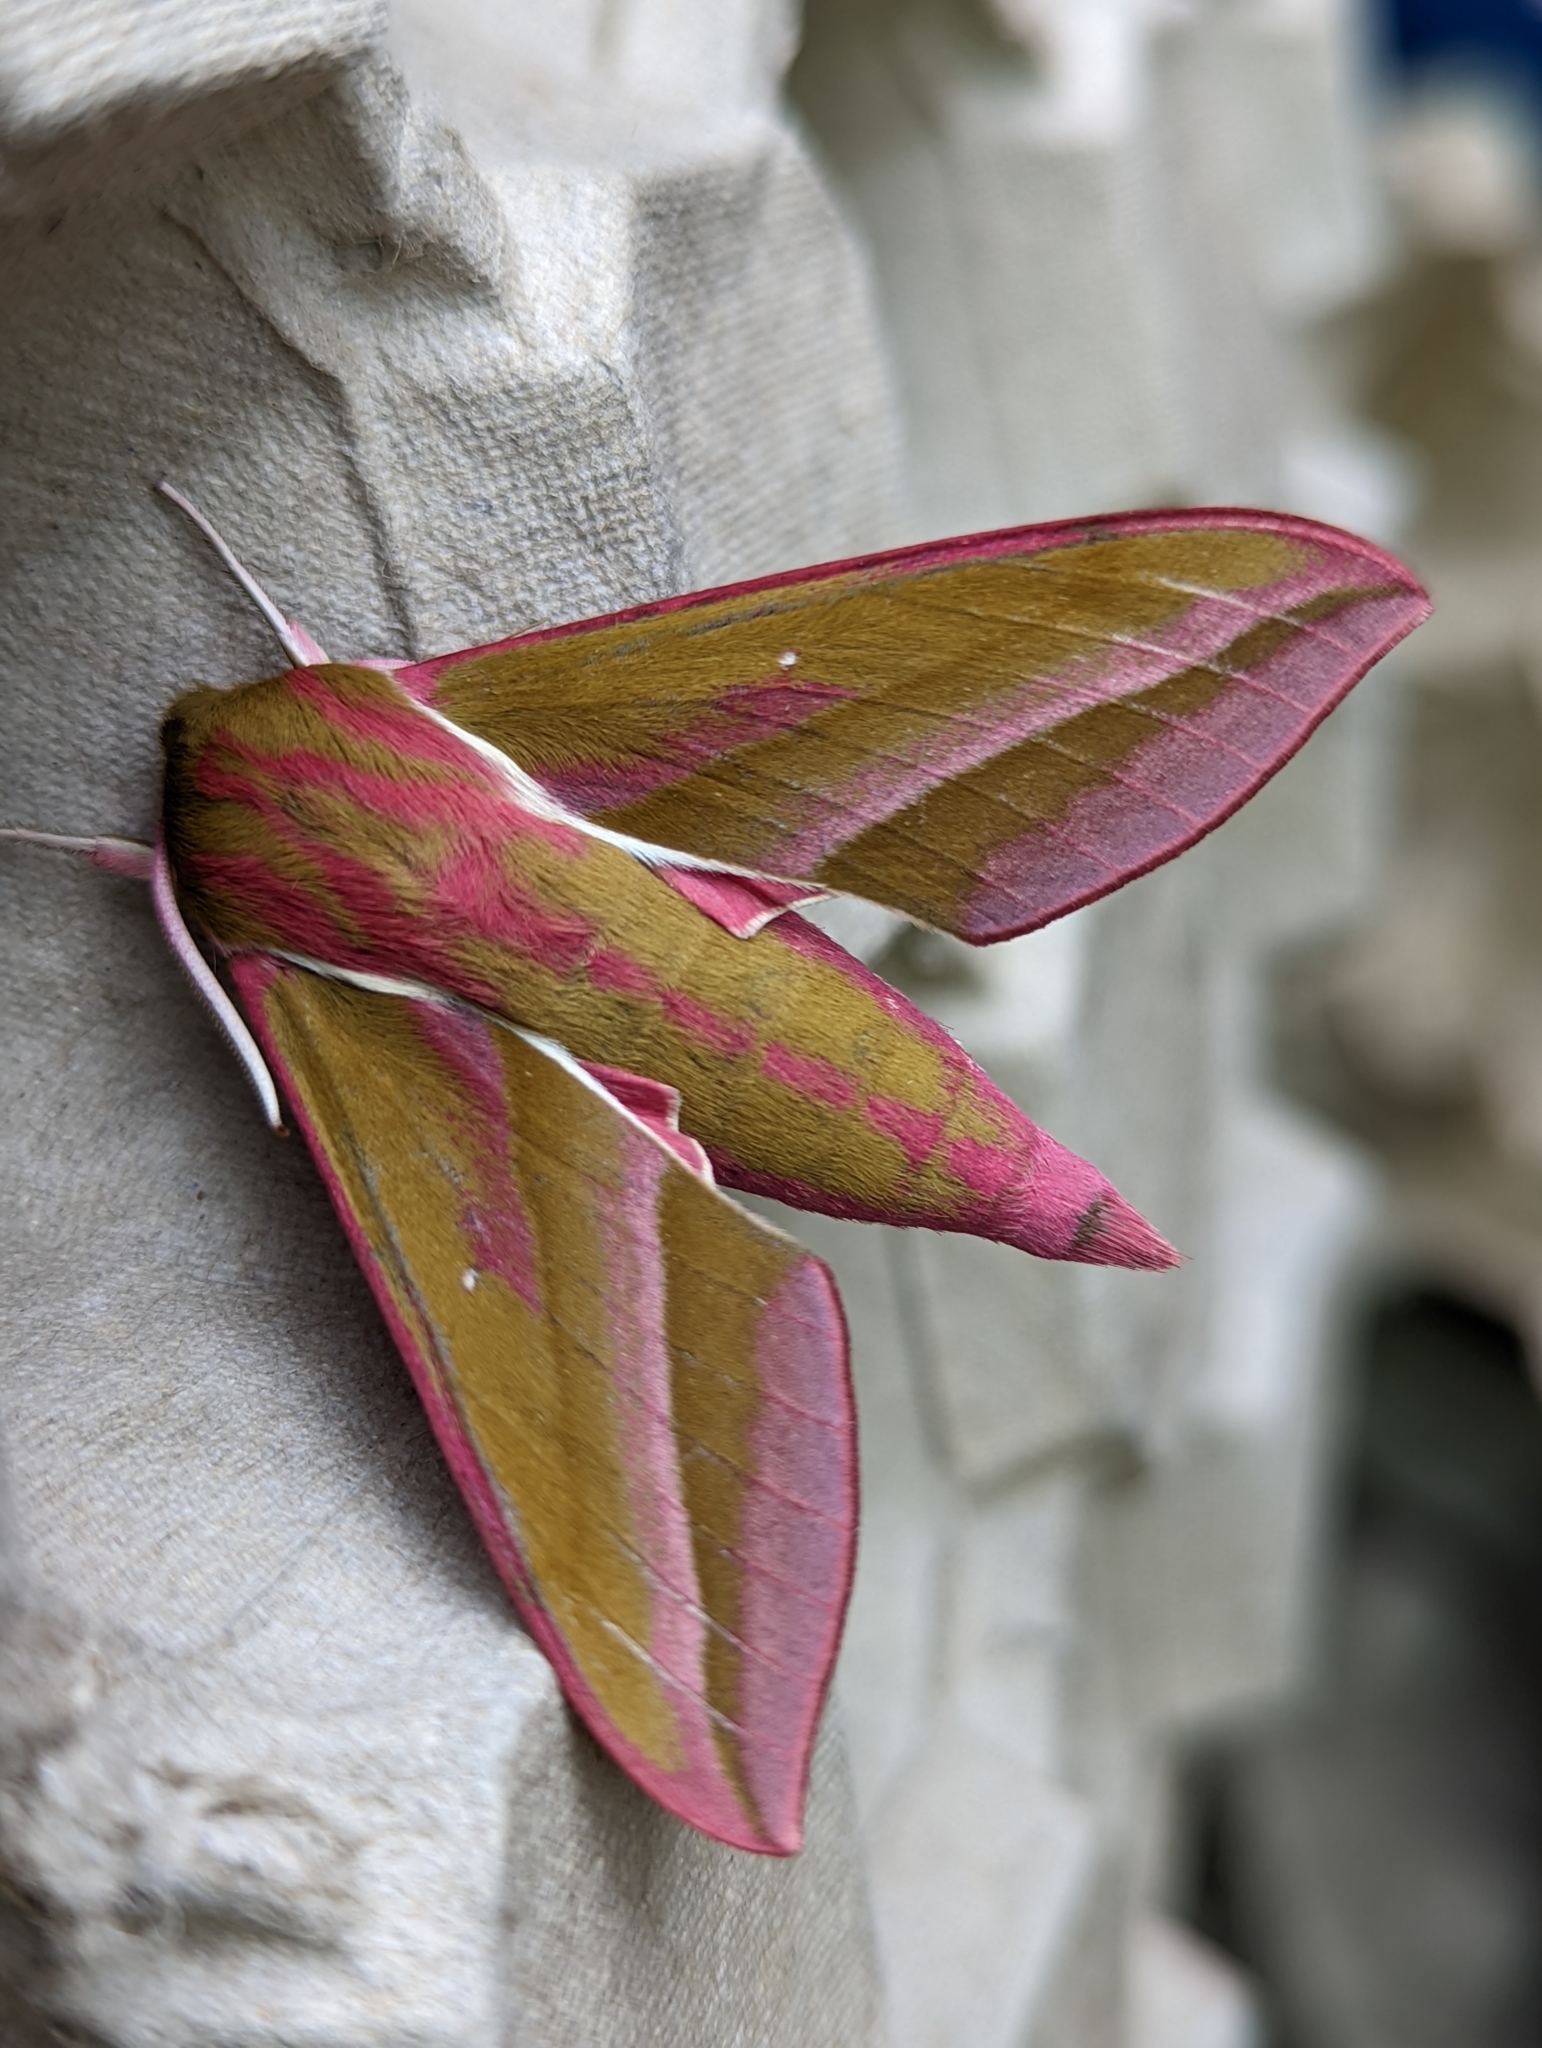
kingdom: Animalia
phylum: Arthropoda
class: Insecta
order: Lepidoptera
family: Sphingidae
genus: Deilephila
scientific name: Deilephila elpenor
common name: Elephant hawk-moth
